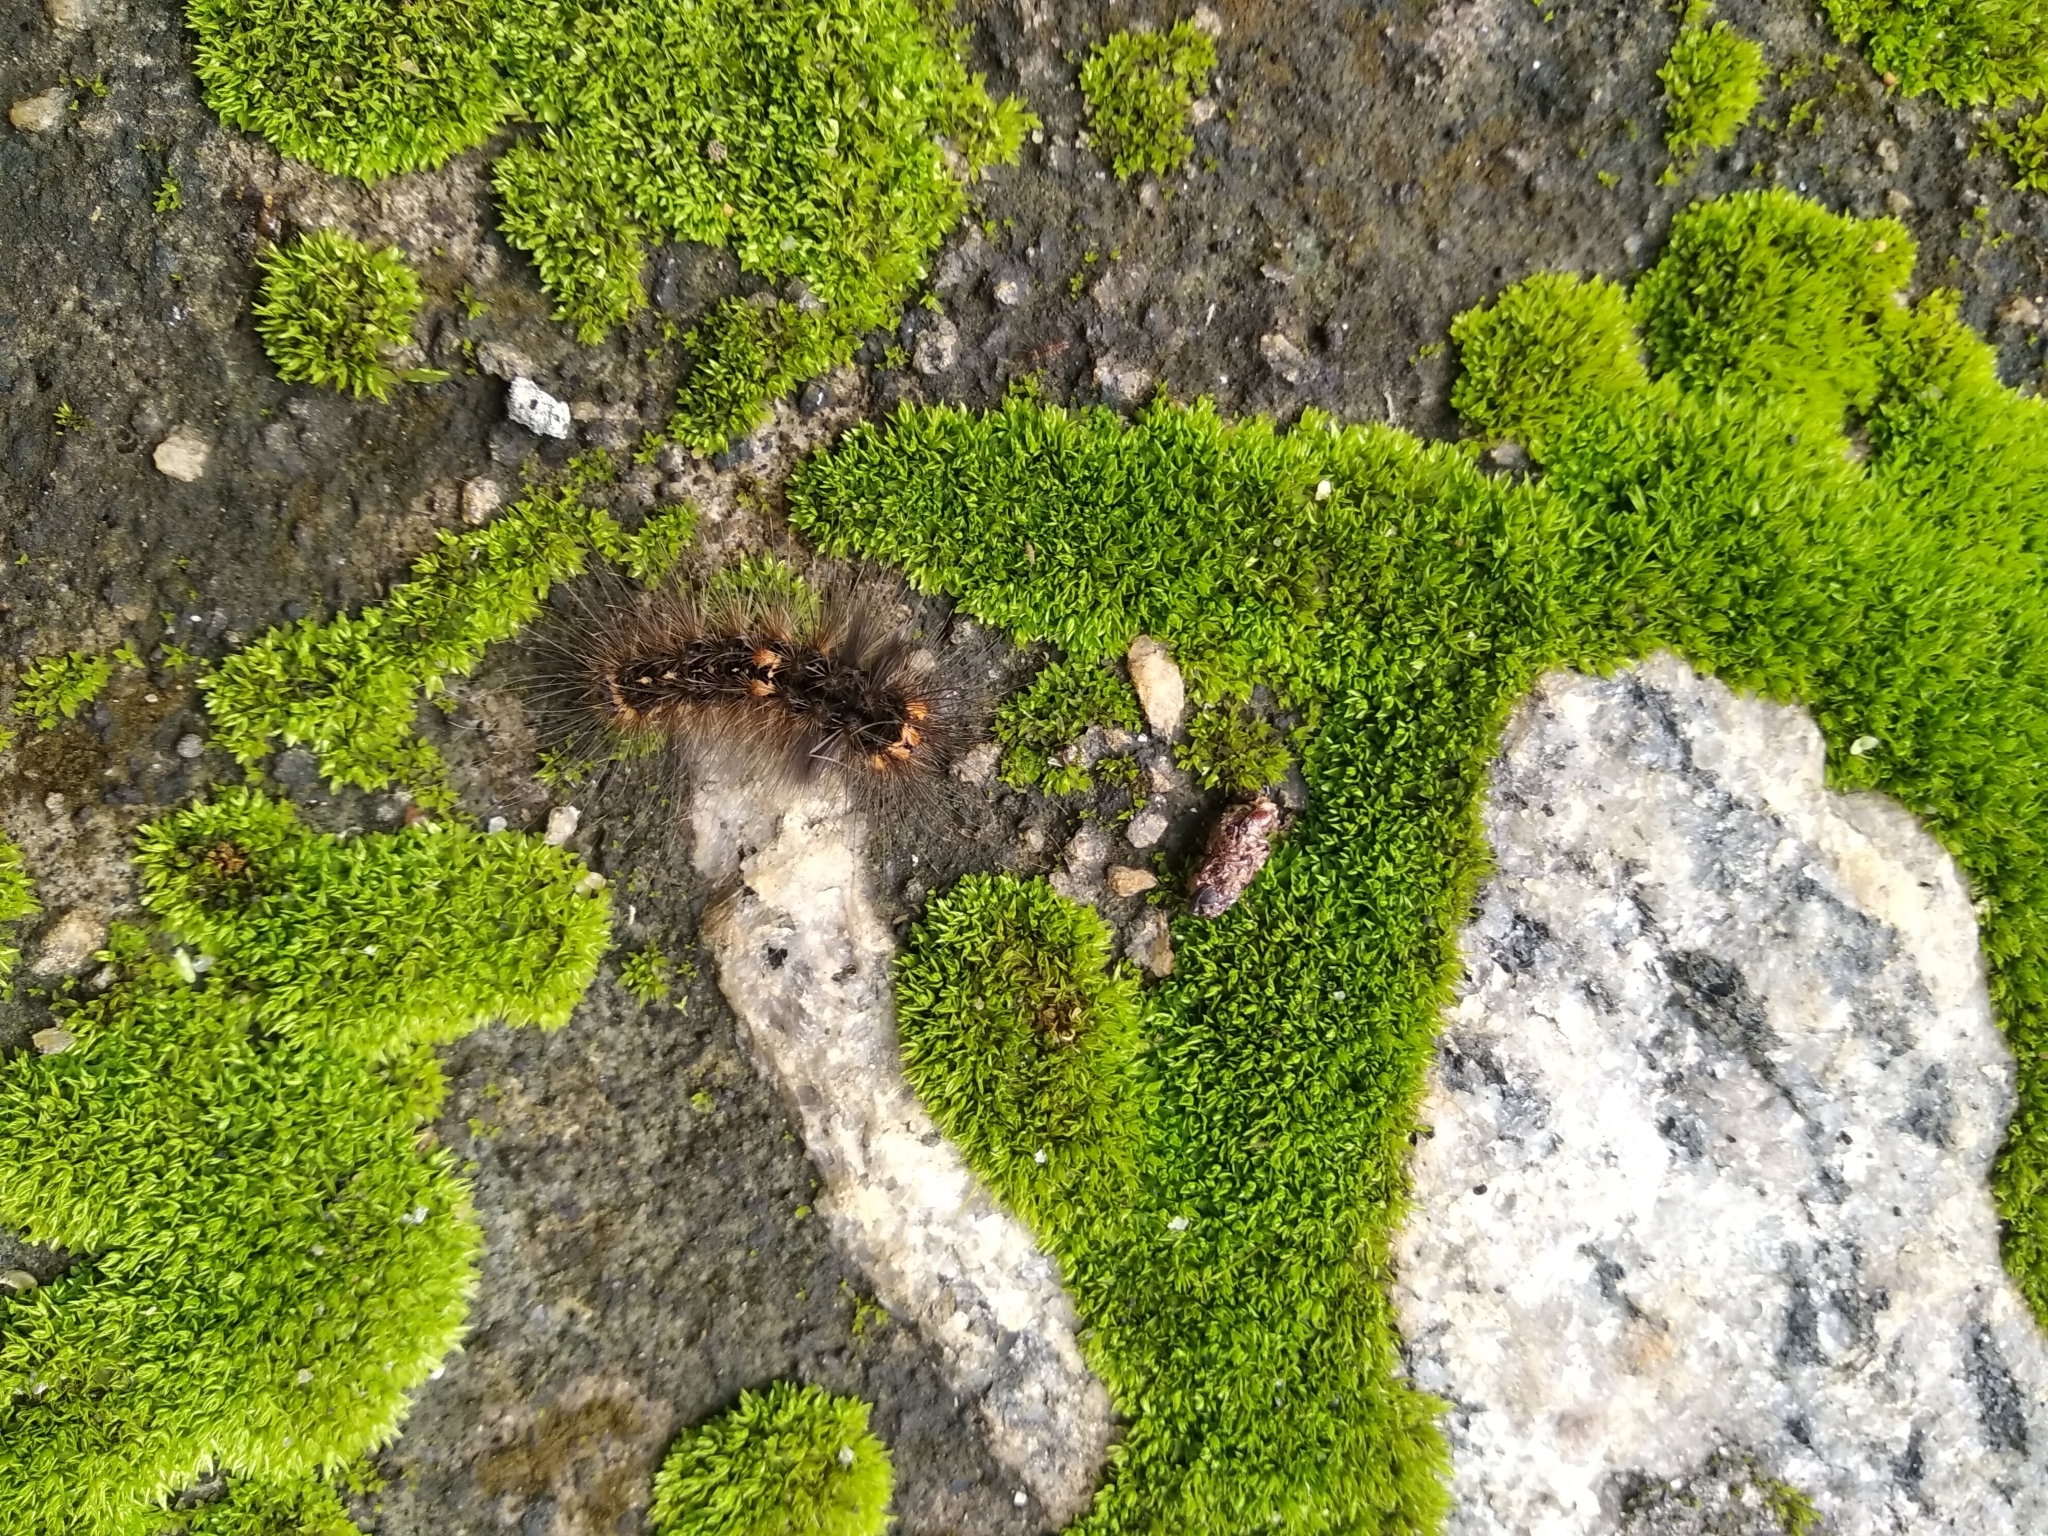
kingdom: Animalia
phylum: Arthropoda
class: Insecta
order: Lepidoptera
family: Erebidae
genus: Nepita
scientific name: Nepita conferta
